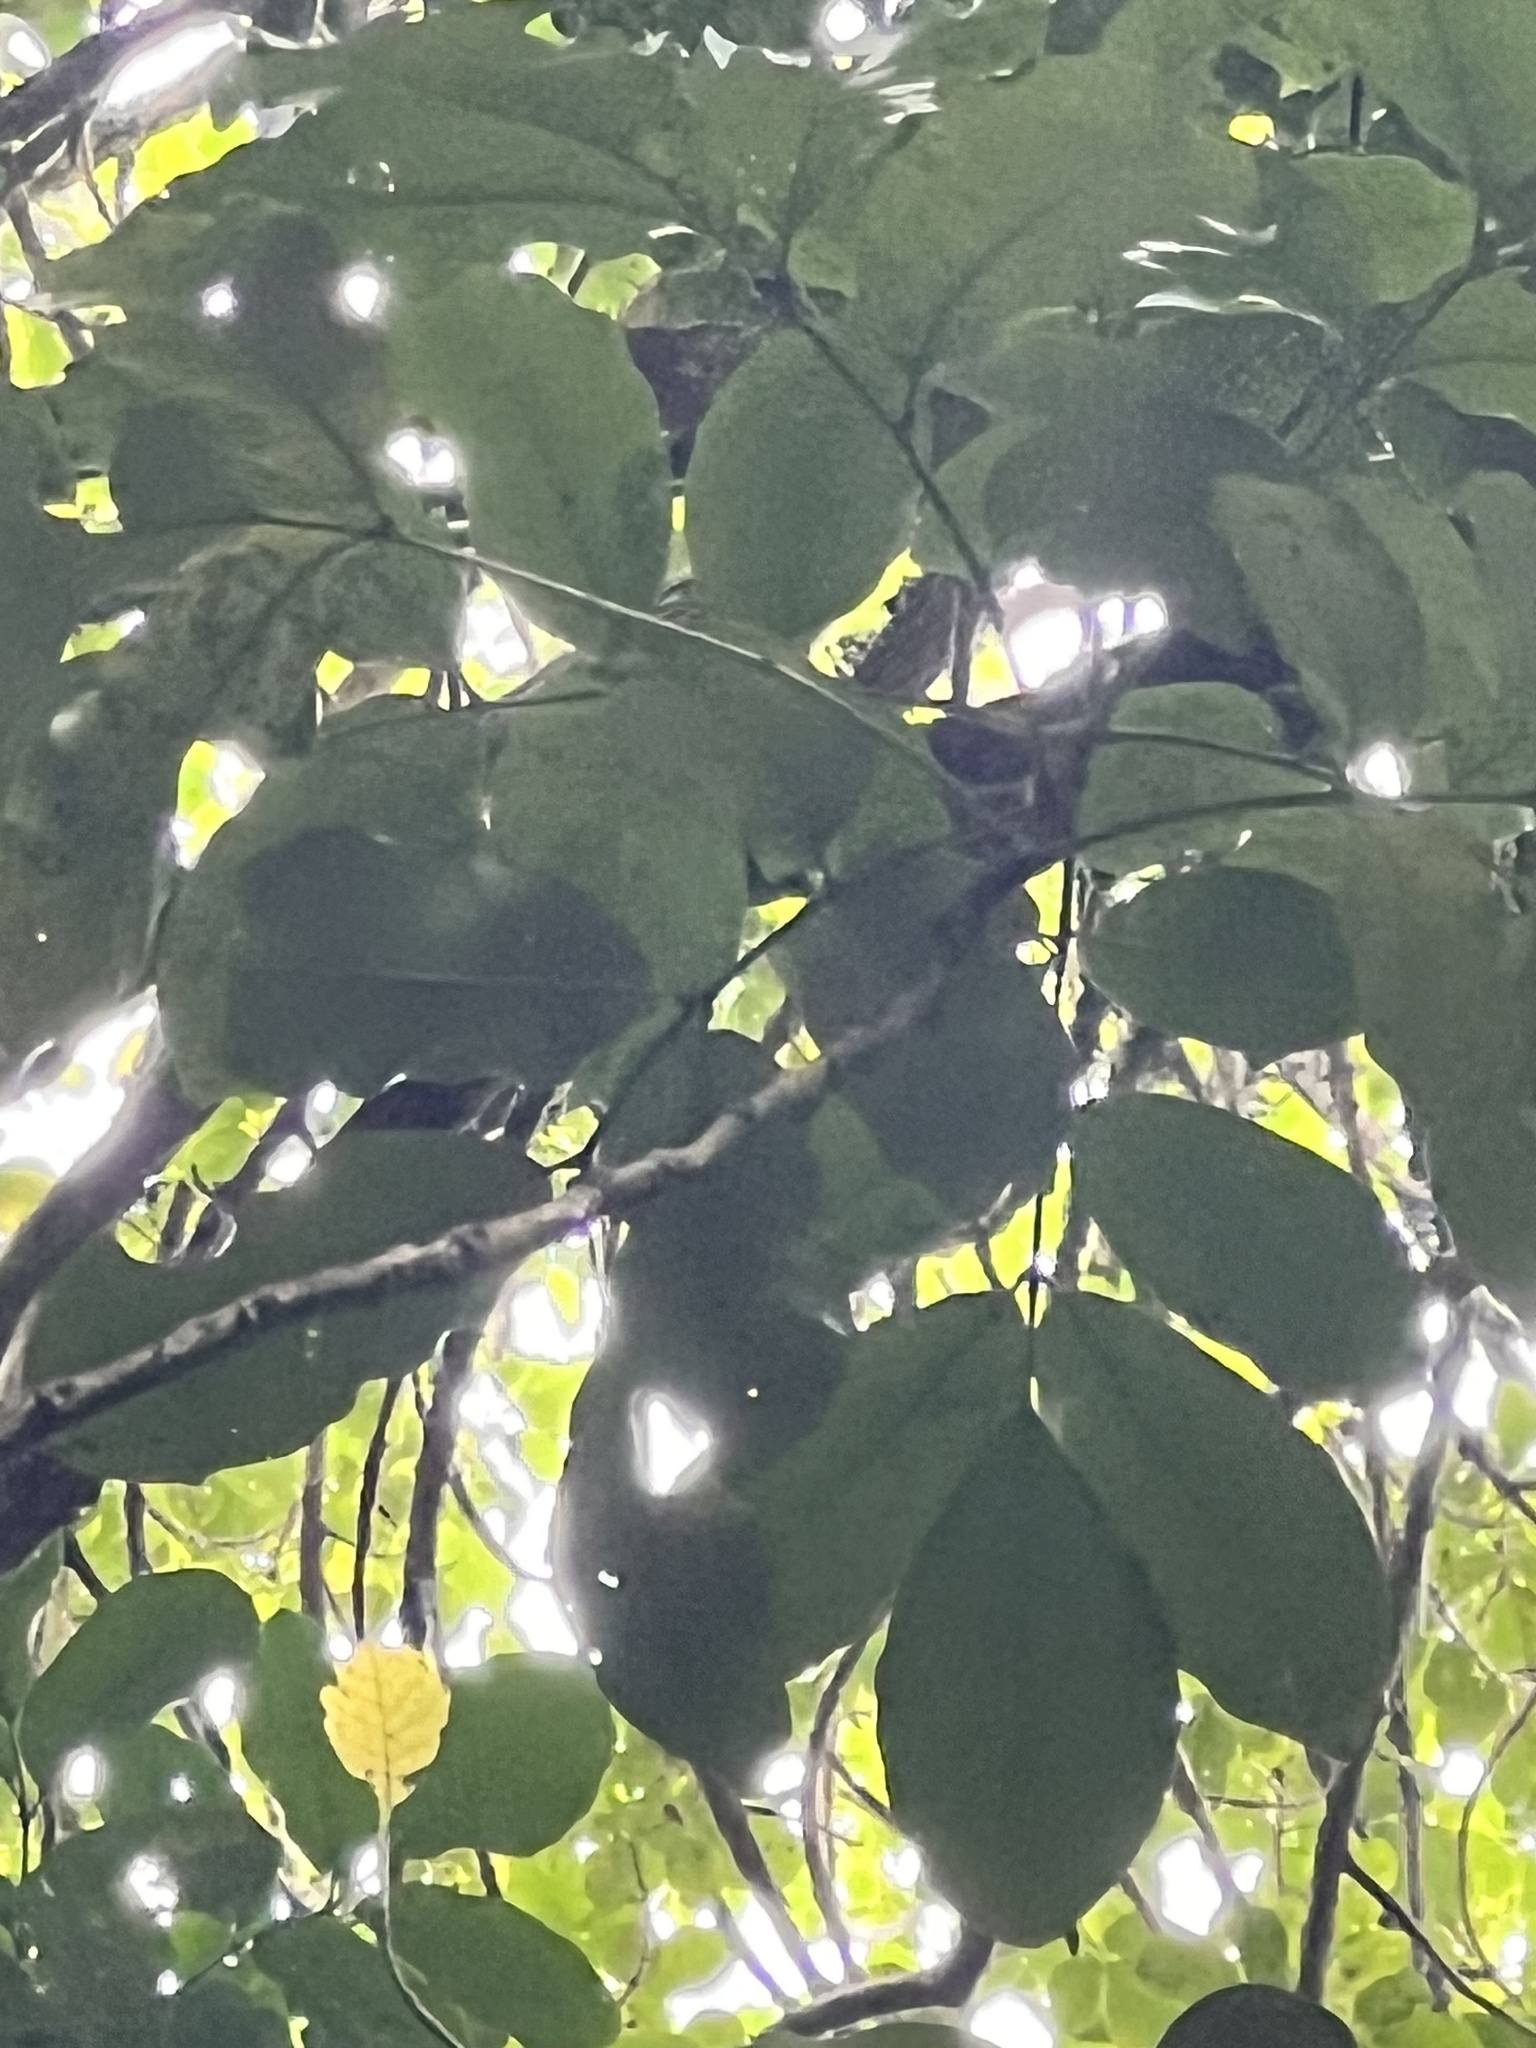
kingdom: Plantae
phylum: Tracheophyta
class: Magnoliopsida
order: Sapindales
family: Meliaceae
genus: Didymocheton
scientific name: Didymocheton spectabilis
